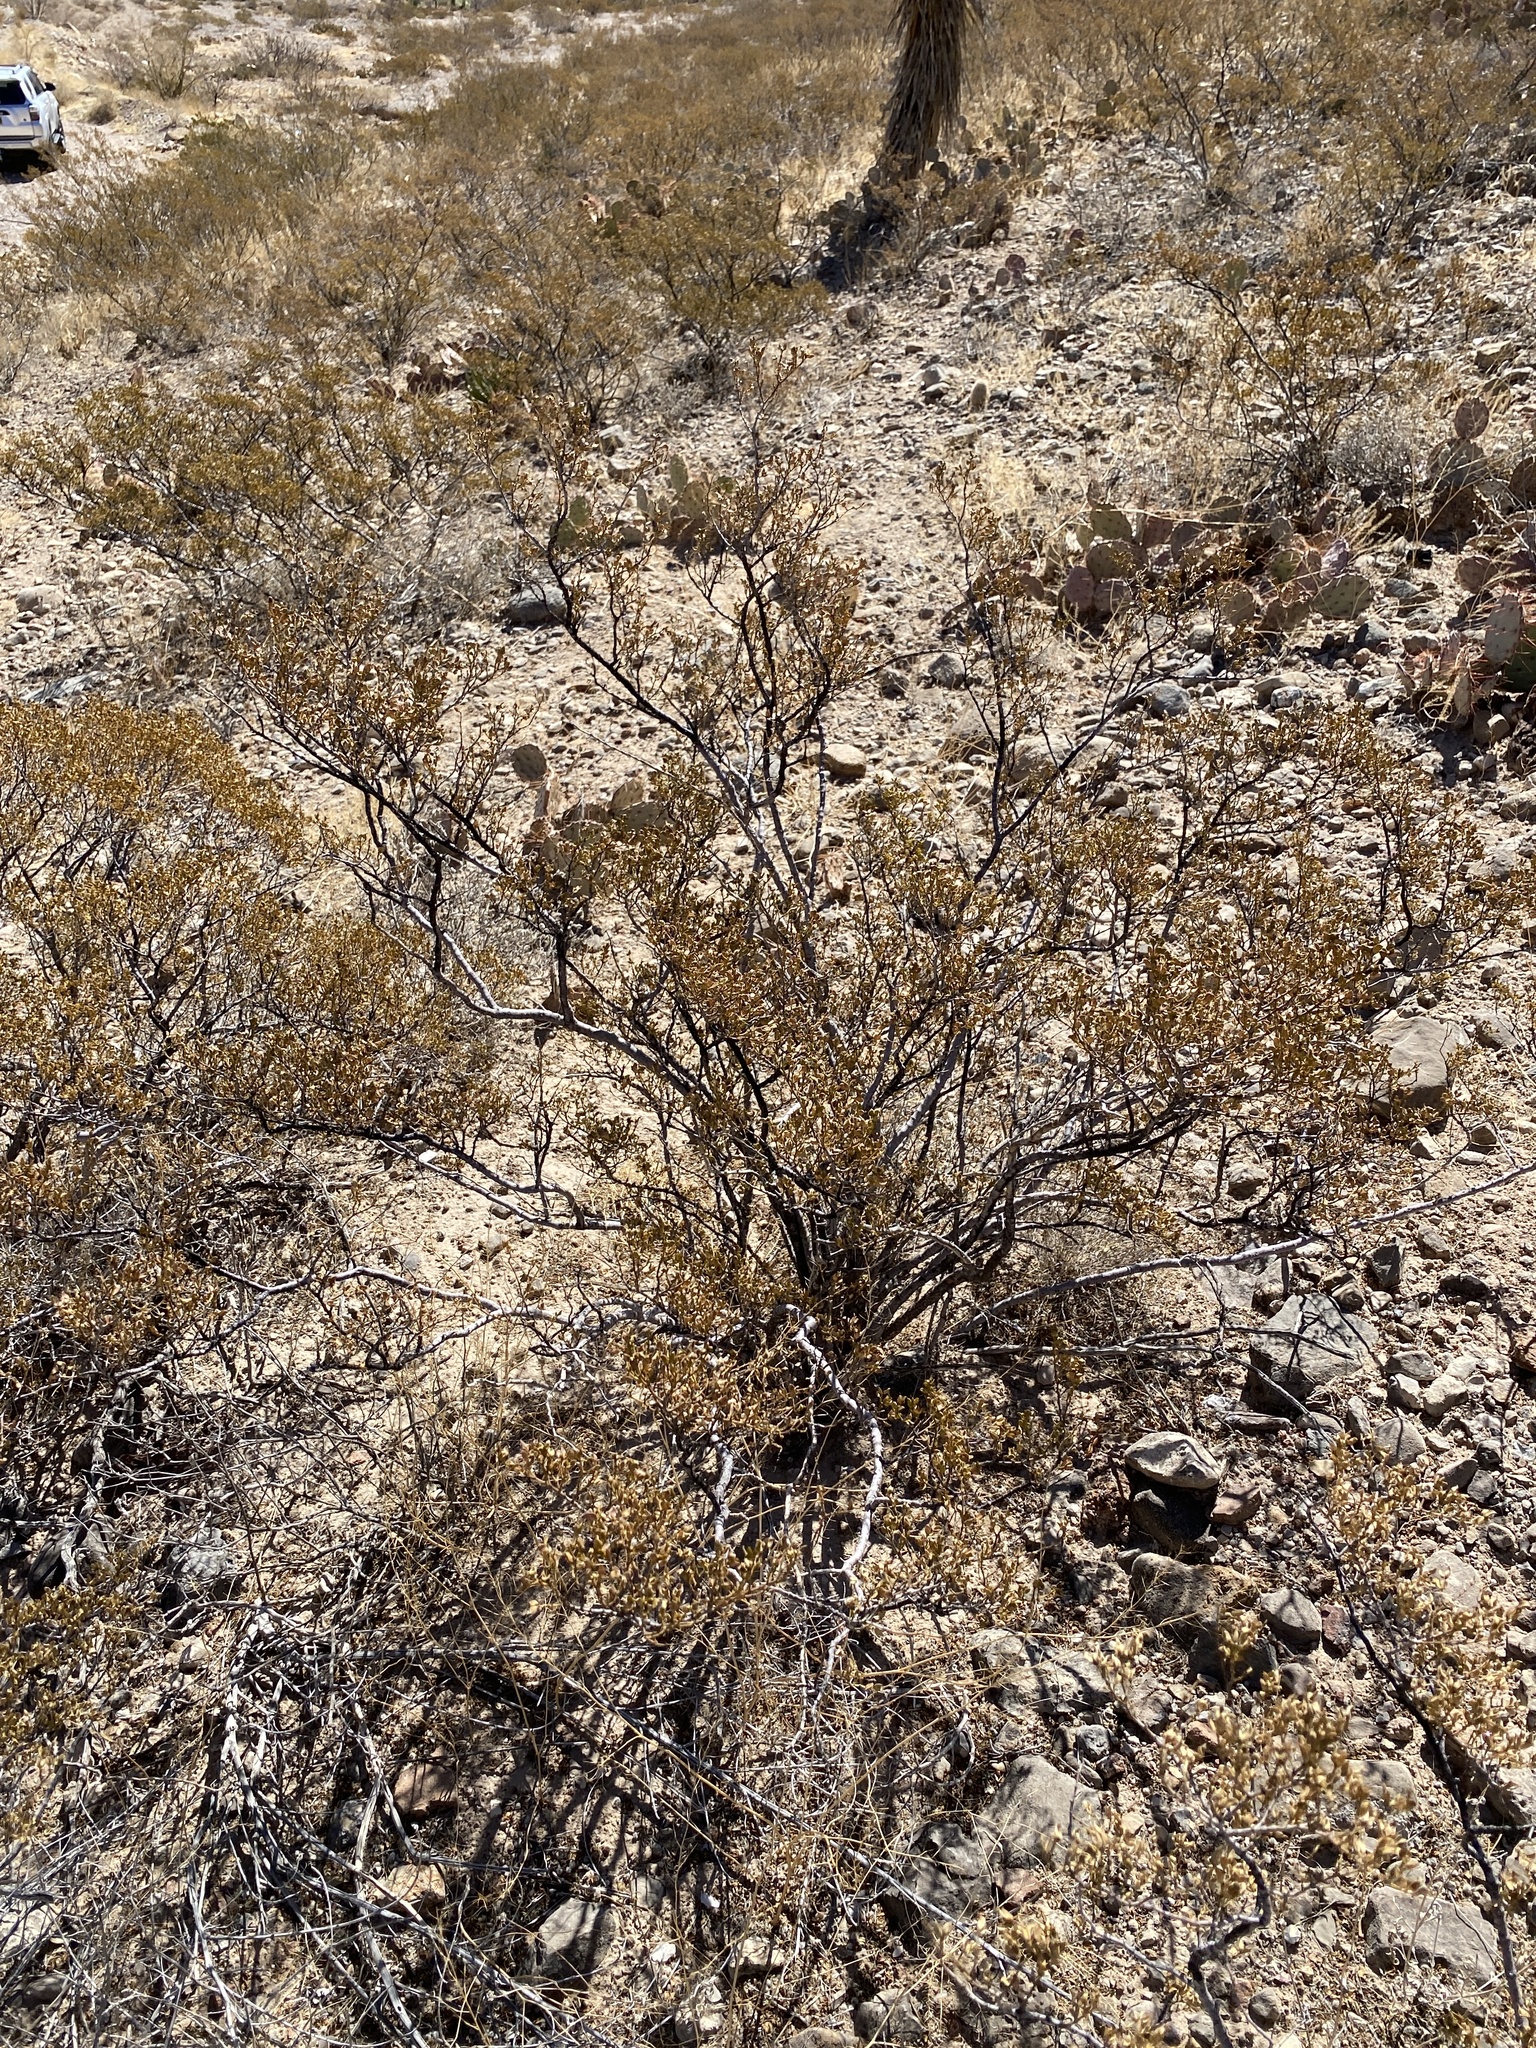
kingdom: Plantae
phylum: Tracheophyta
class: Magnoliopsida
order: Zygophyllales
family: Zygophyllaceae
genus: Larrea
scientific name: Larrea tridentata
